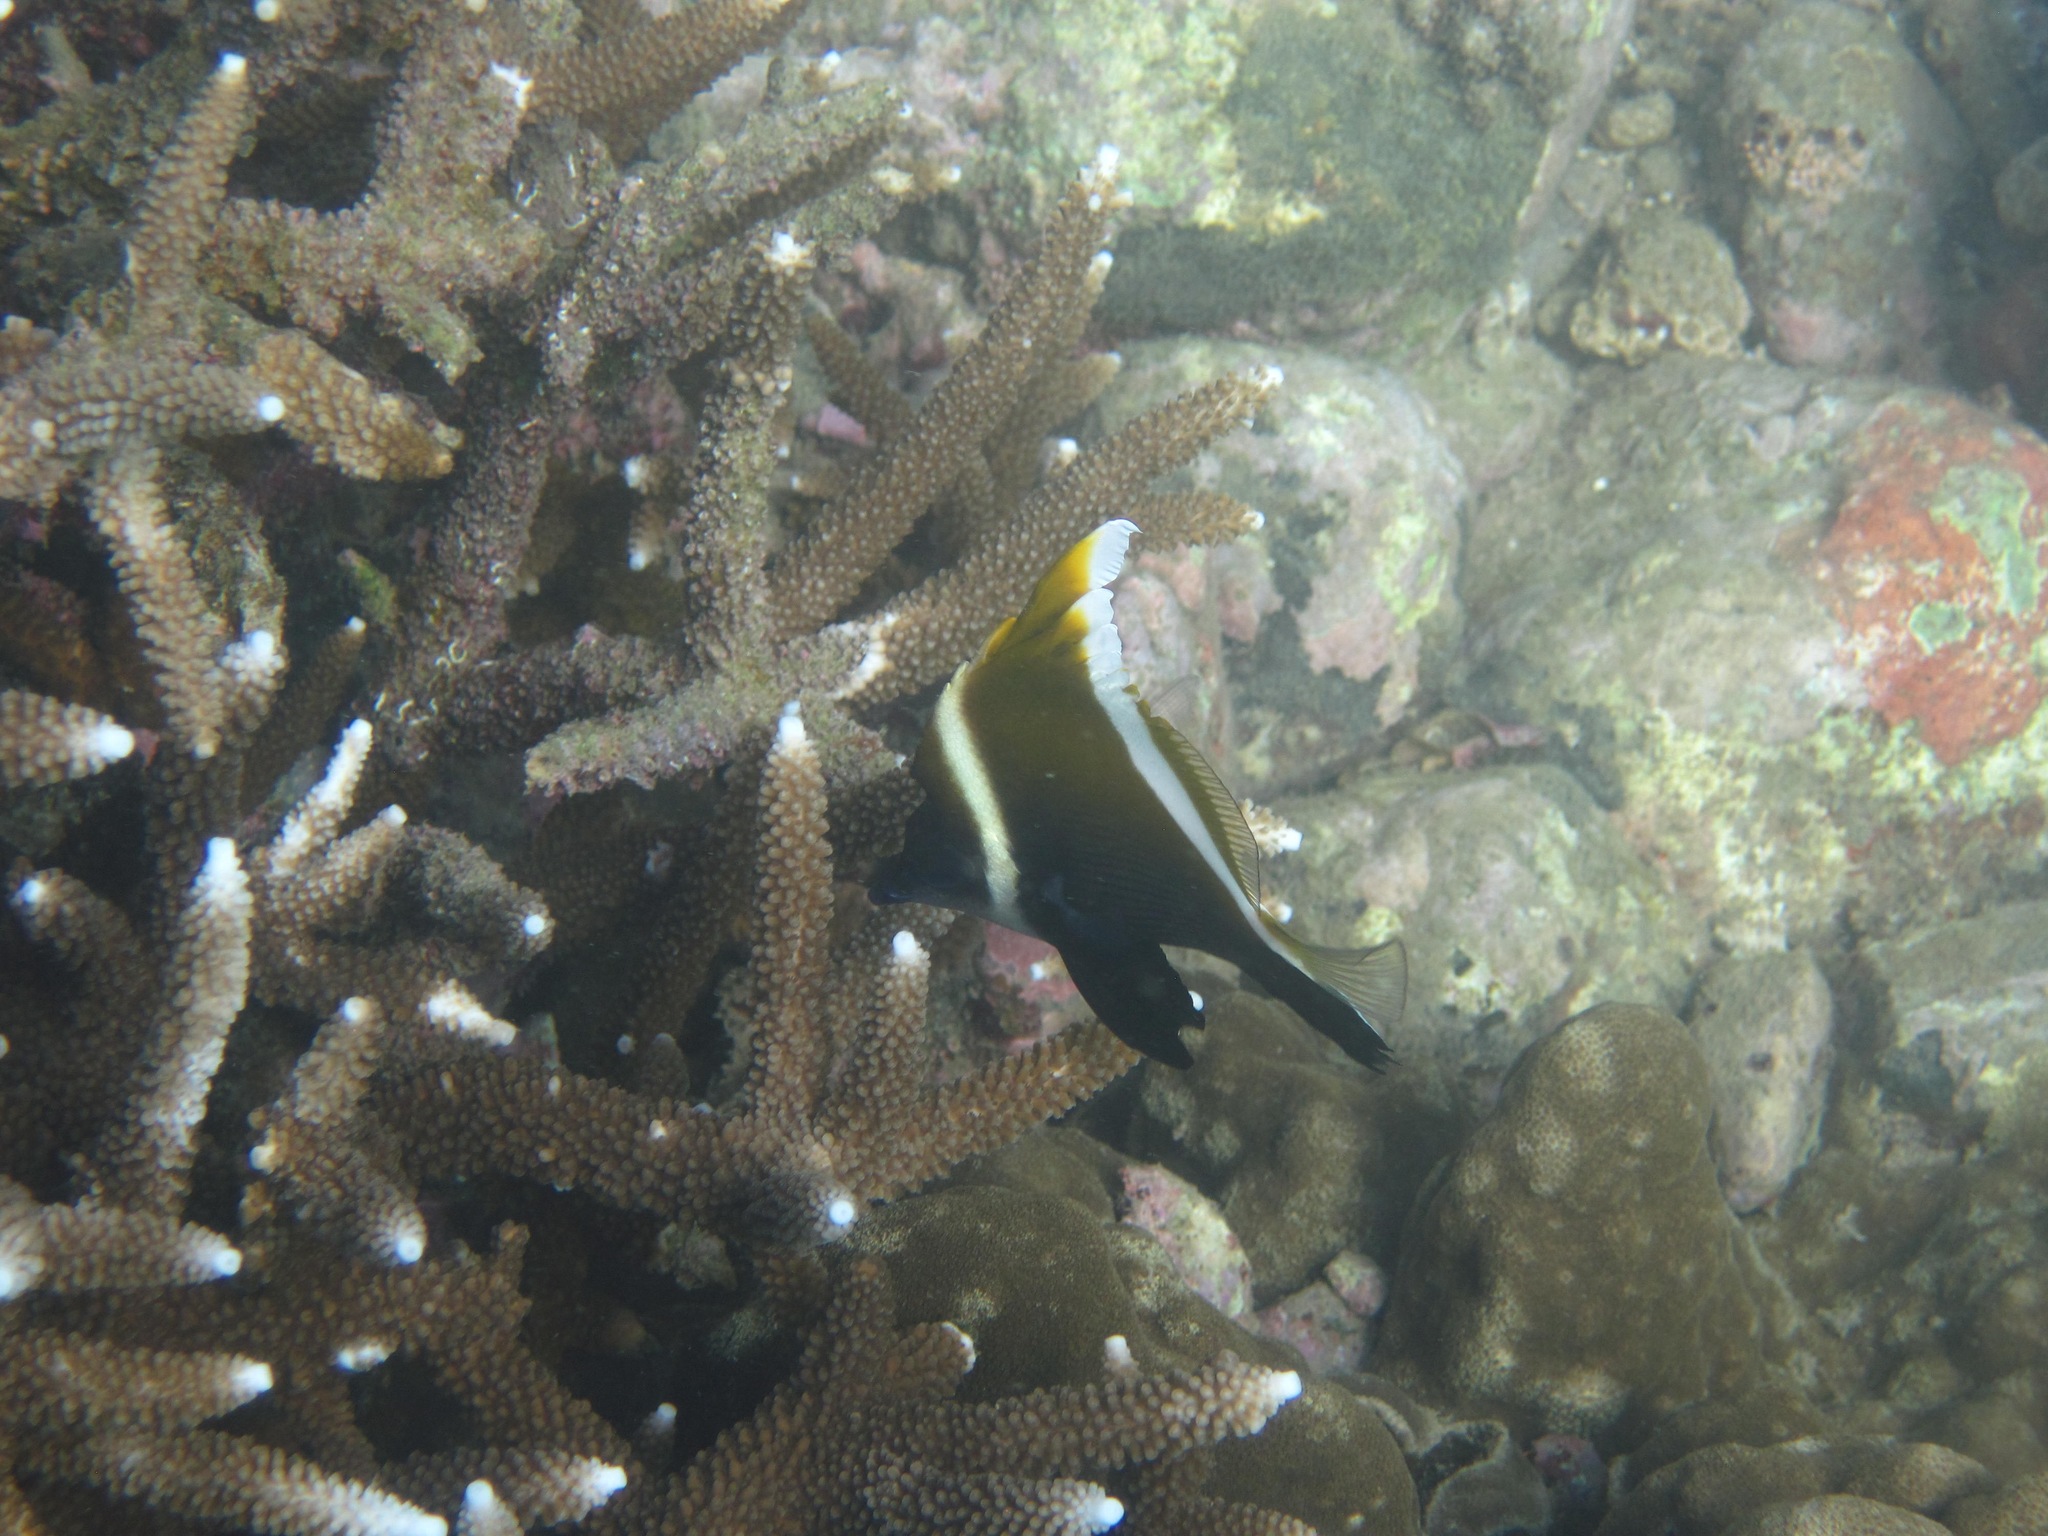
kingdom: Animalia
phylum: Chordata
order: Perciformes
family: Chaetodontidae
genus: Heniochus
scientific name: Heniochus varius
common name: Horned bannerfish
